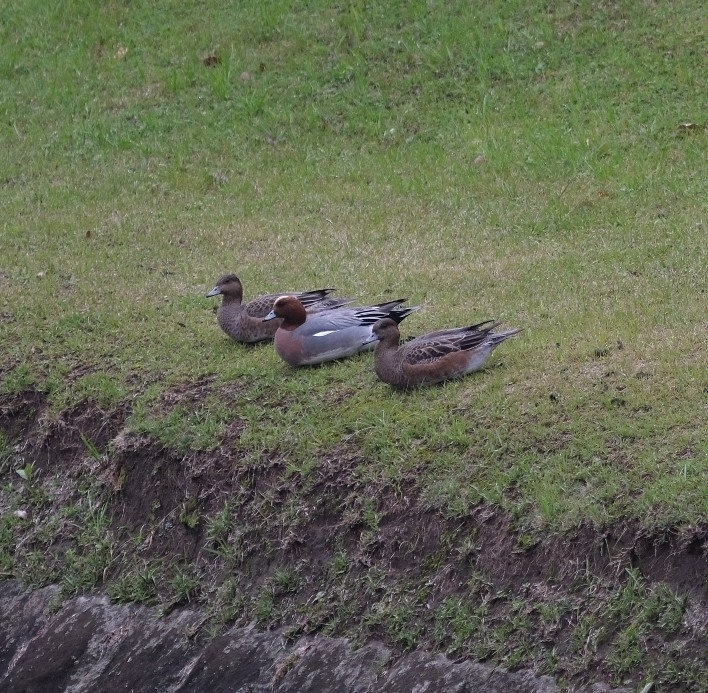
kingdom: Animalia
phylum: Chordata
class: Aves
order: Anseriformes
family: Anatidae
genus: Mareca
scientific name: Mareca penelope
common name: Eurasian wigeon
